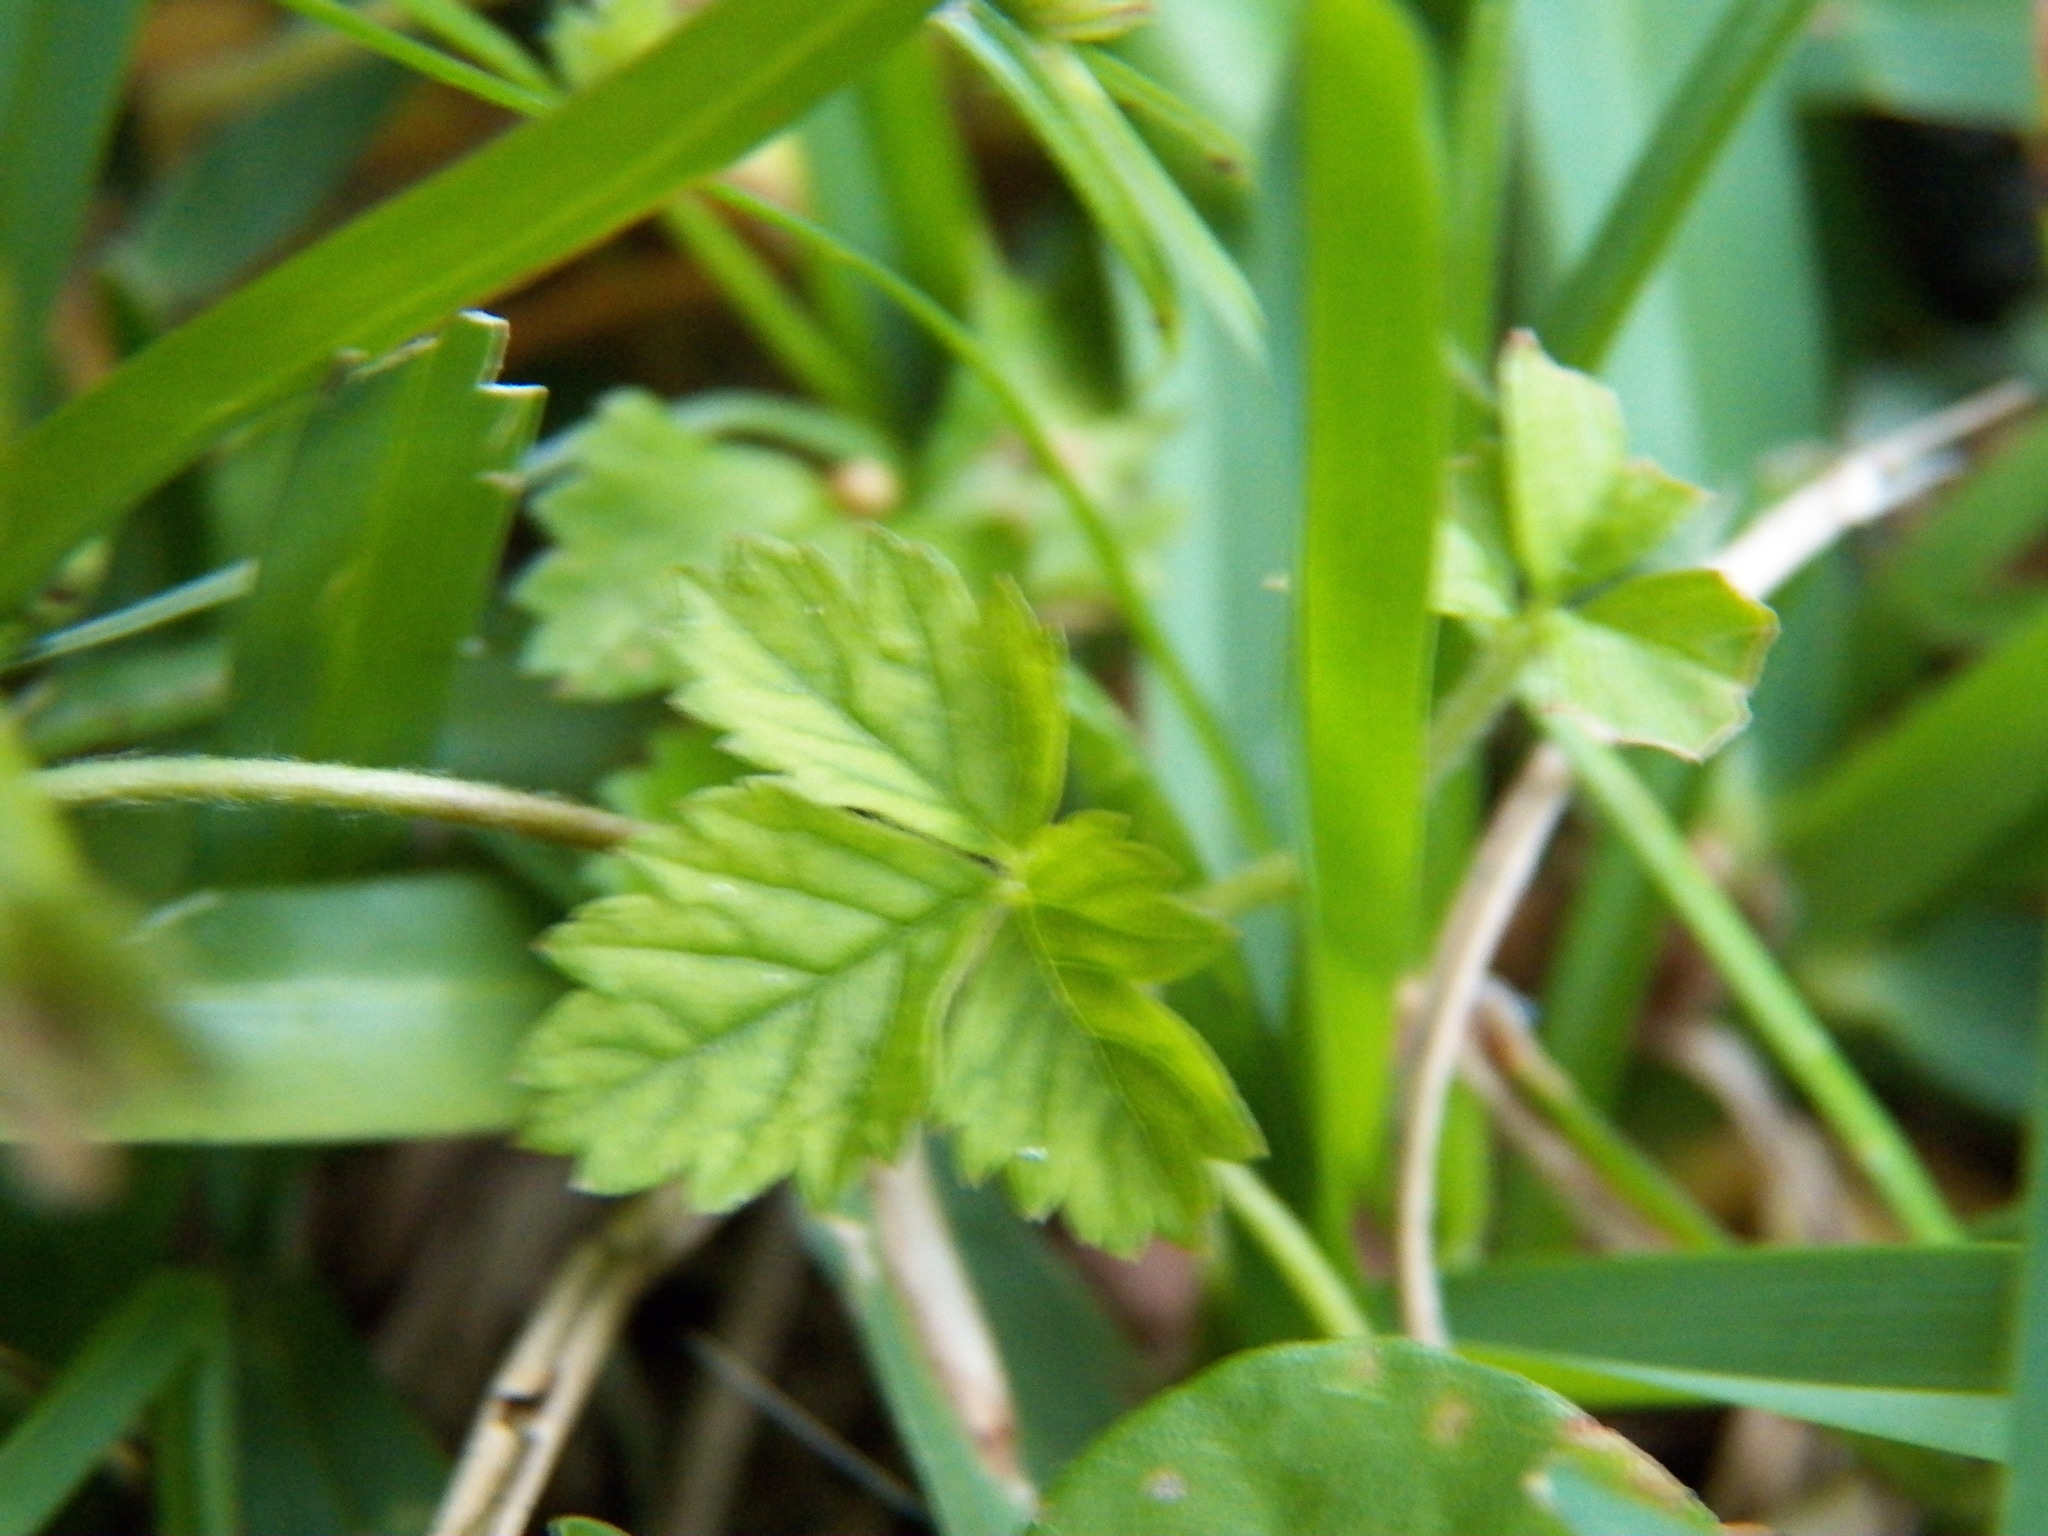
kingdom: Plantae
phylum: Tracheophyta
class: Magnoliopsida
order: Rosales
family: Rosaceae
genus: Potentilla
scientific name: Potentilla indica
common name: Yellow-flowered strawberry
